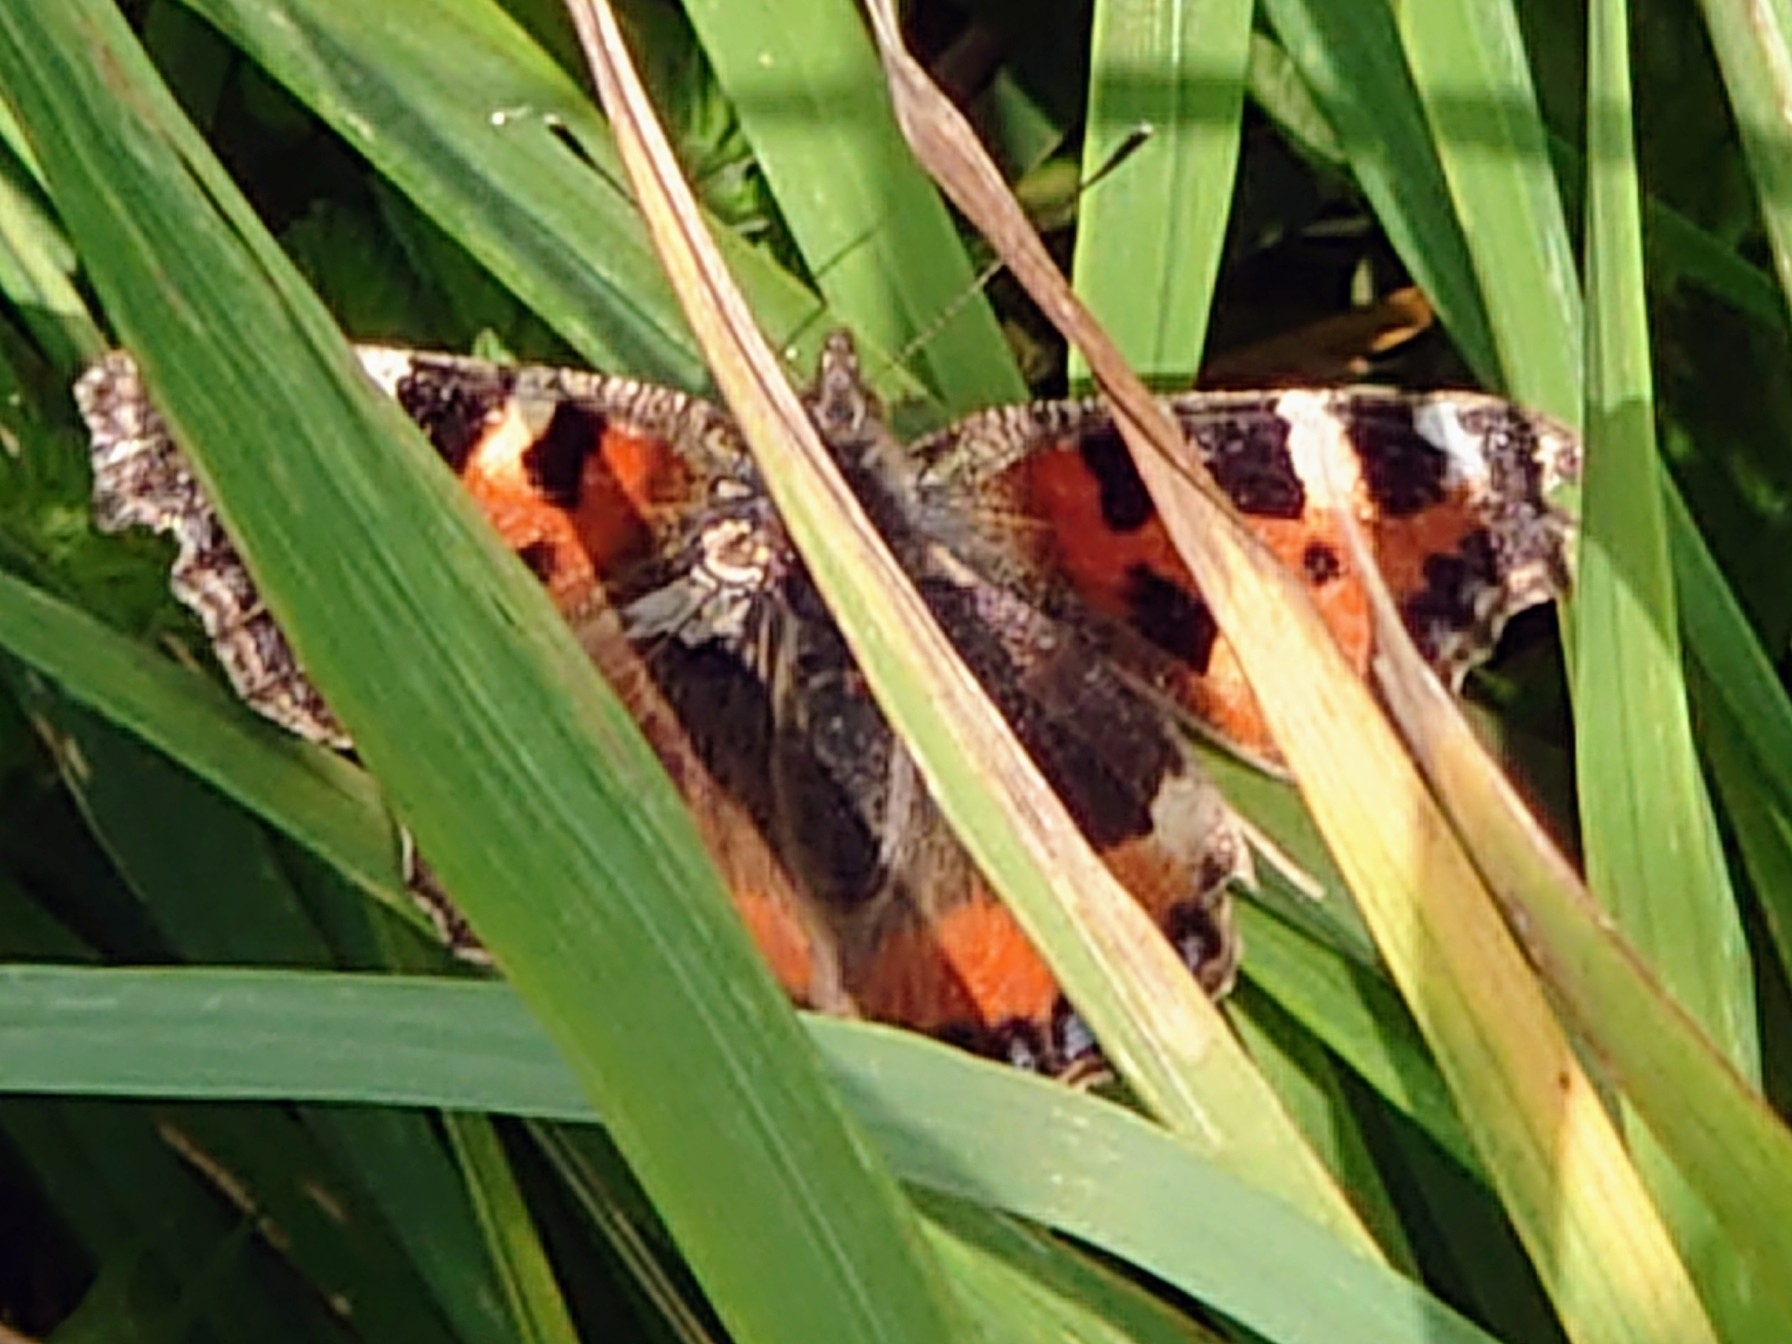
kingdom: Animalia
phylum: Arthropoda
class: Insecta
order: Lepidoptera
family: Nymphalidae
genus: Aglais
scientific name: Aglais urticae
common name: Small tortoiseshell
